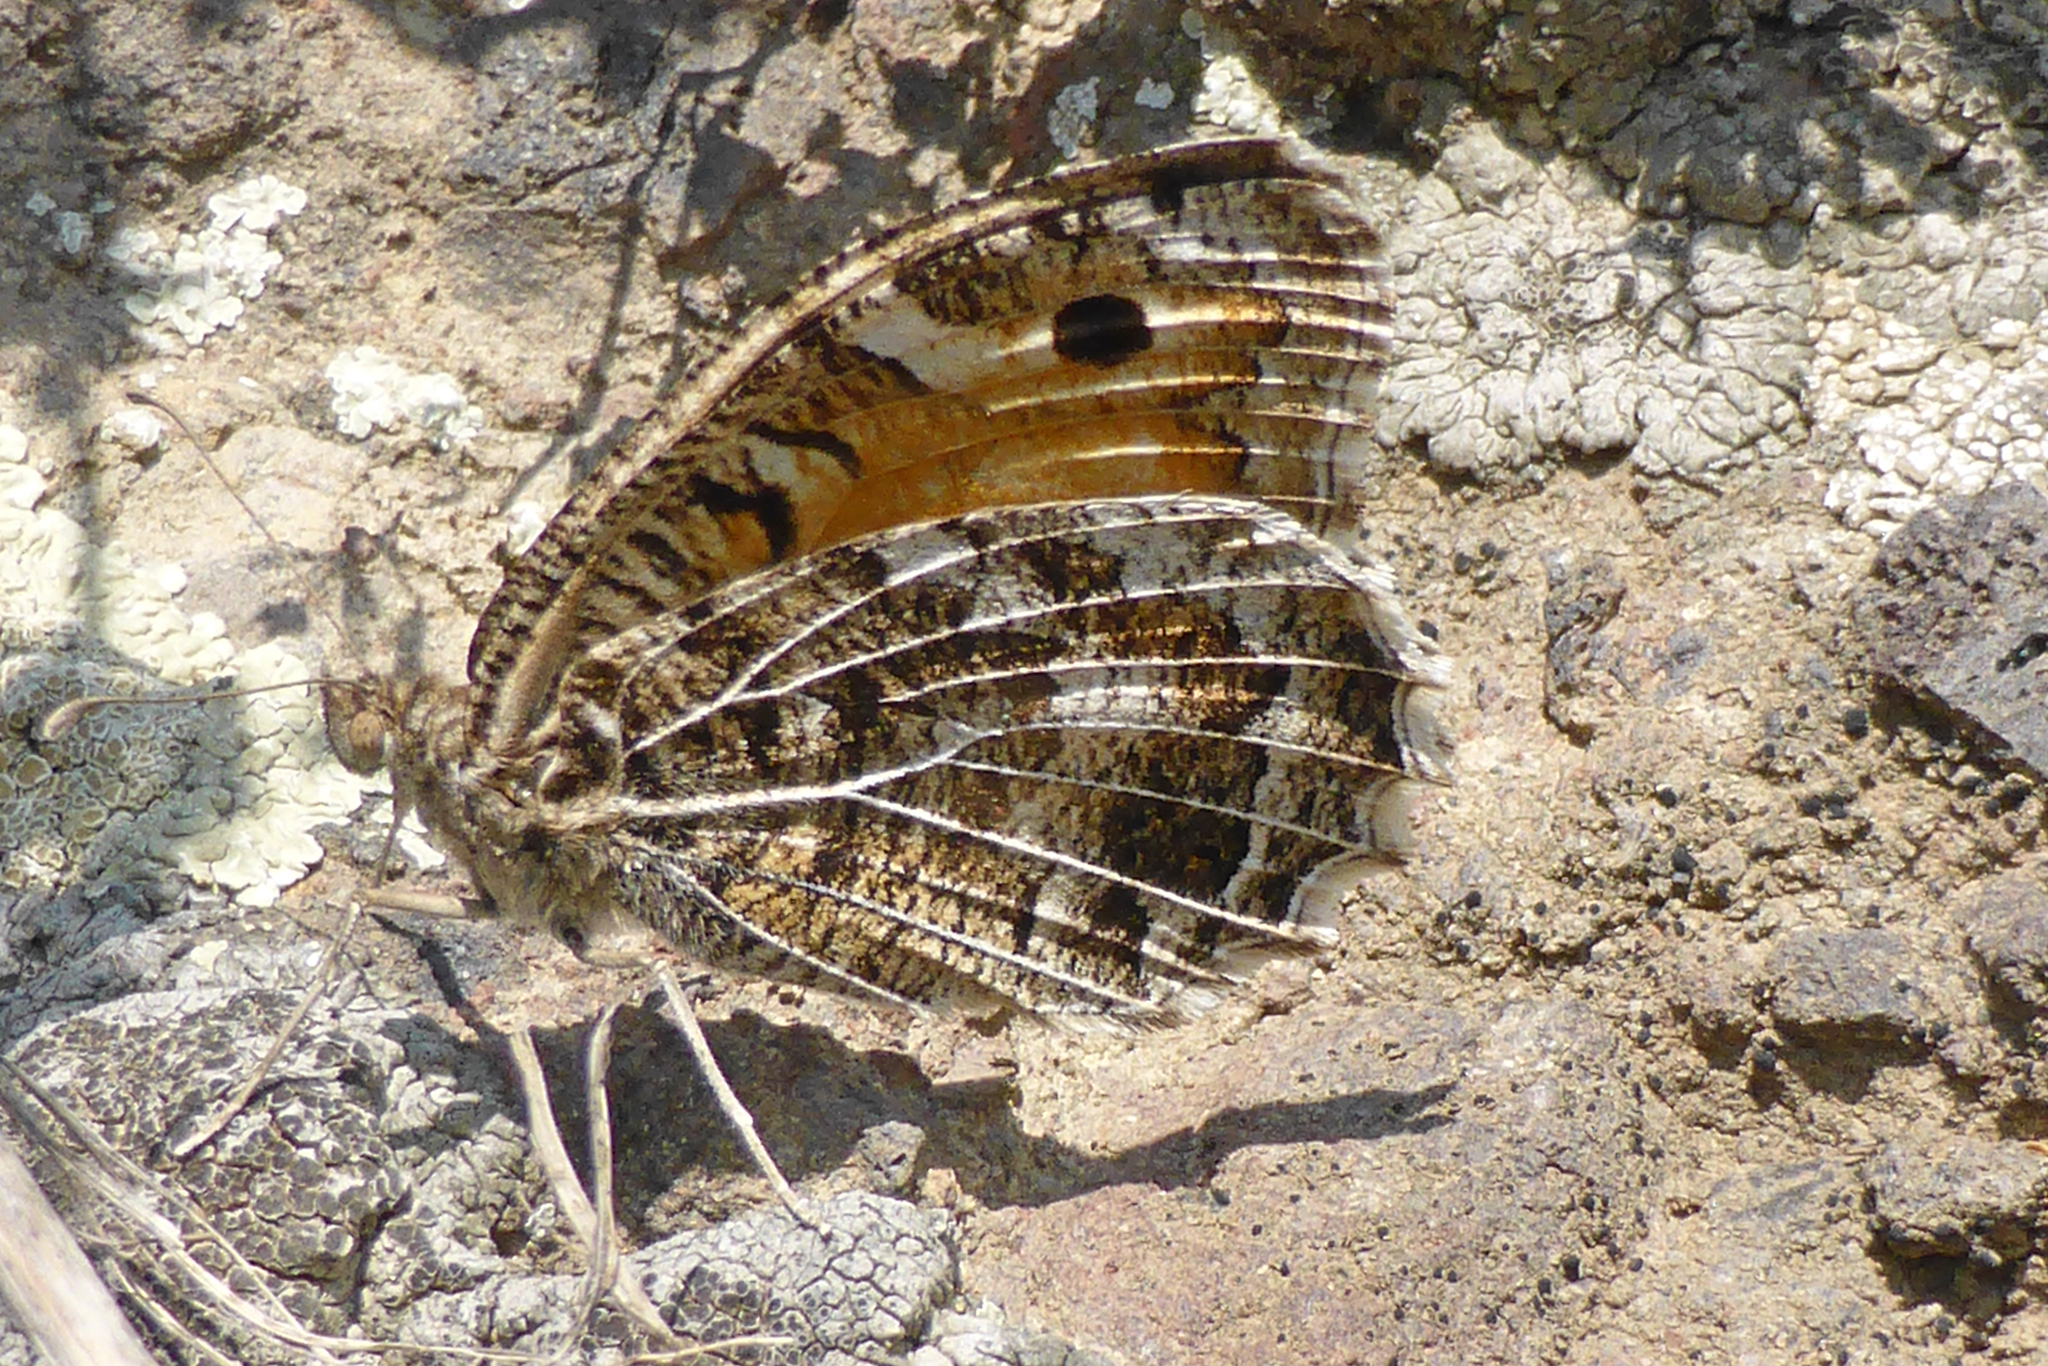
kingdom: Animalia
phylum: Arthropoda
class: Insecta
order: Lepidoptera
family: Nymphalidae
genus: Satyrus
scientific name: Satyrus Chazara persephone
